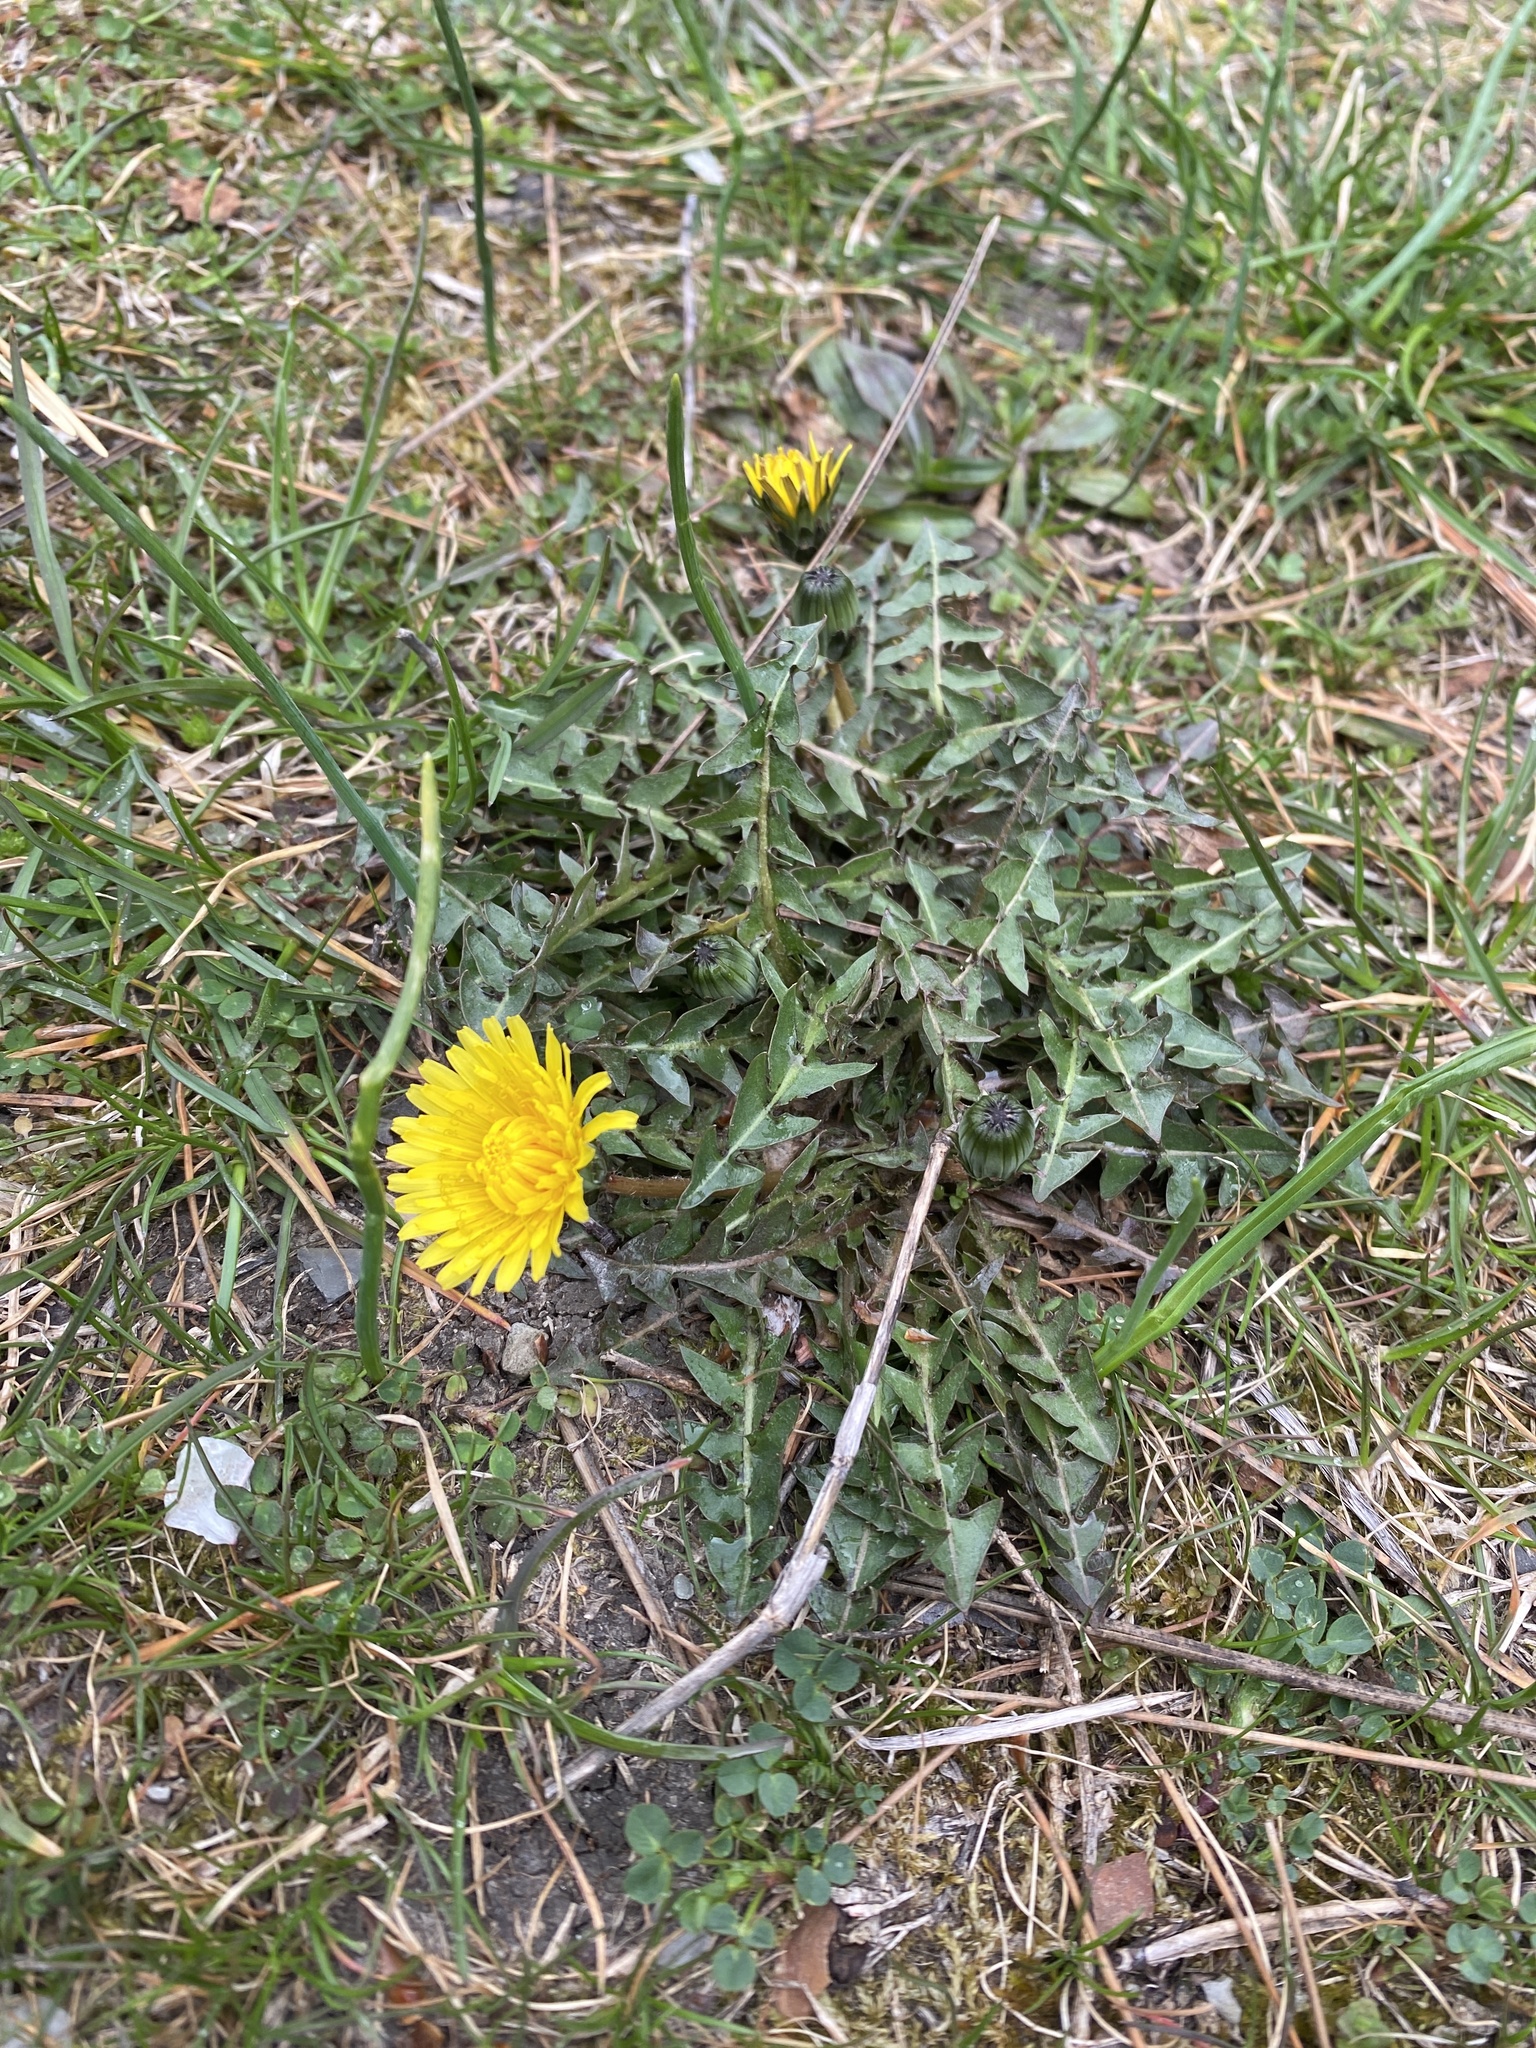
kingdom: Plantae
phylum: Tracheophyta
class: Magnoliopsida
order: Asterales
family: Asteraceae
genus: Taraxacum
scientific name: Taraxacum officinale
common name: Common dandelion
